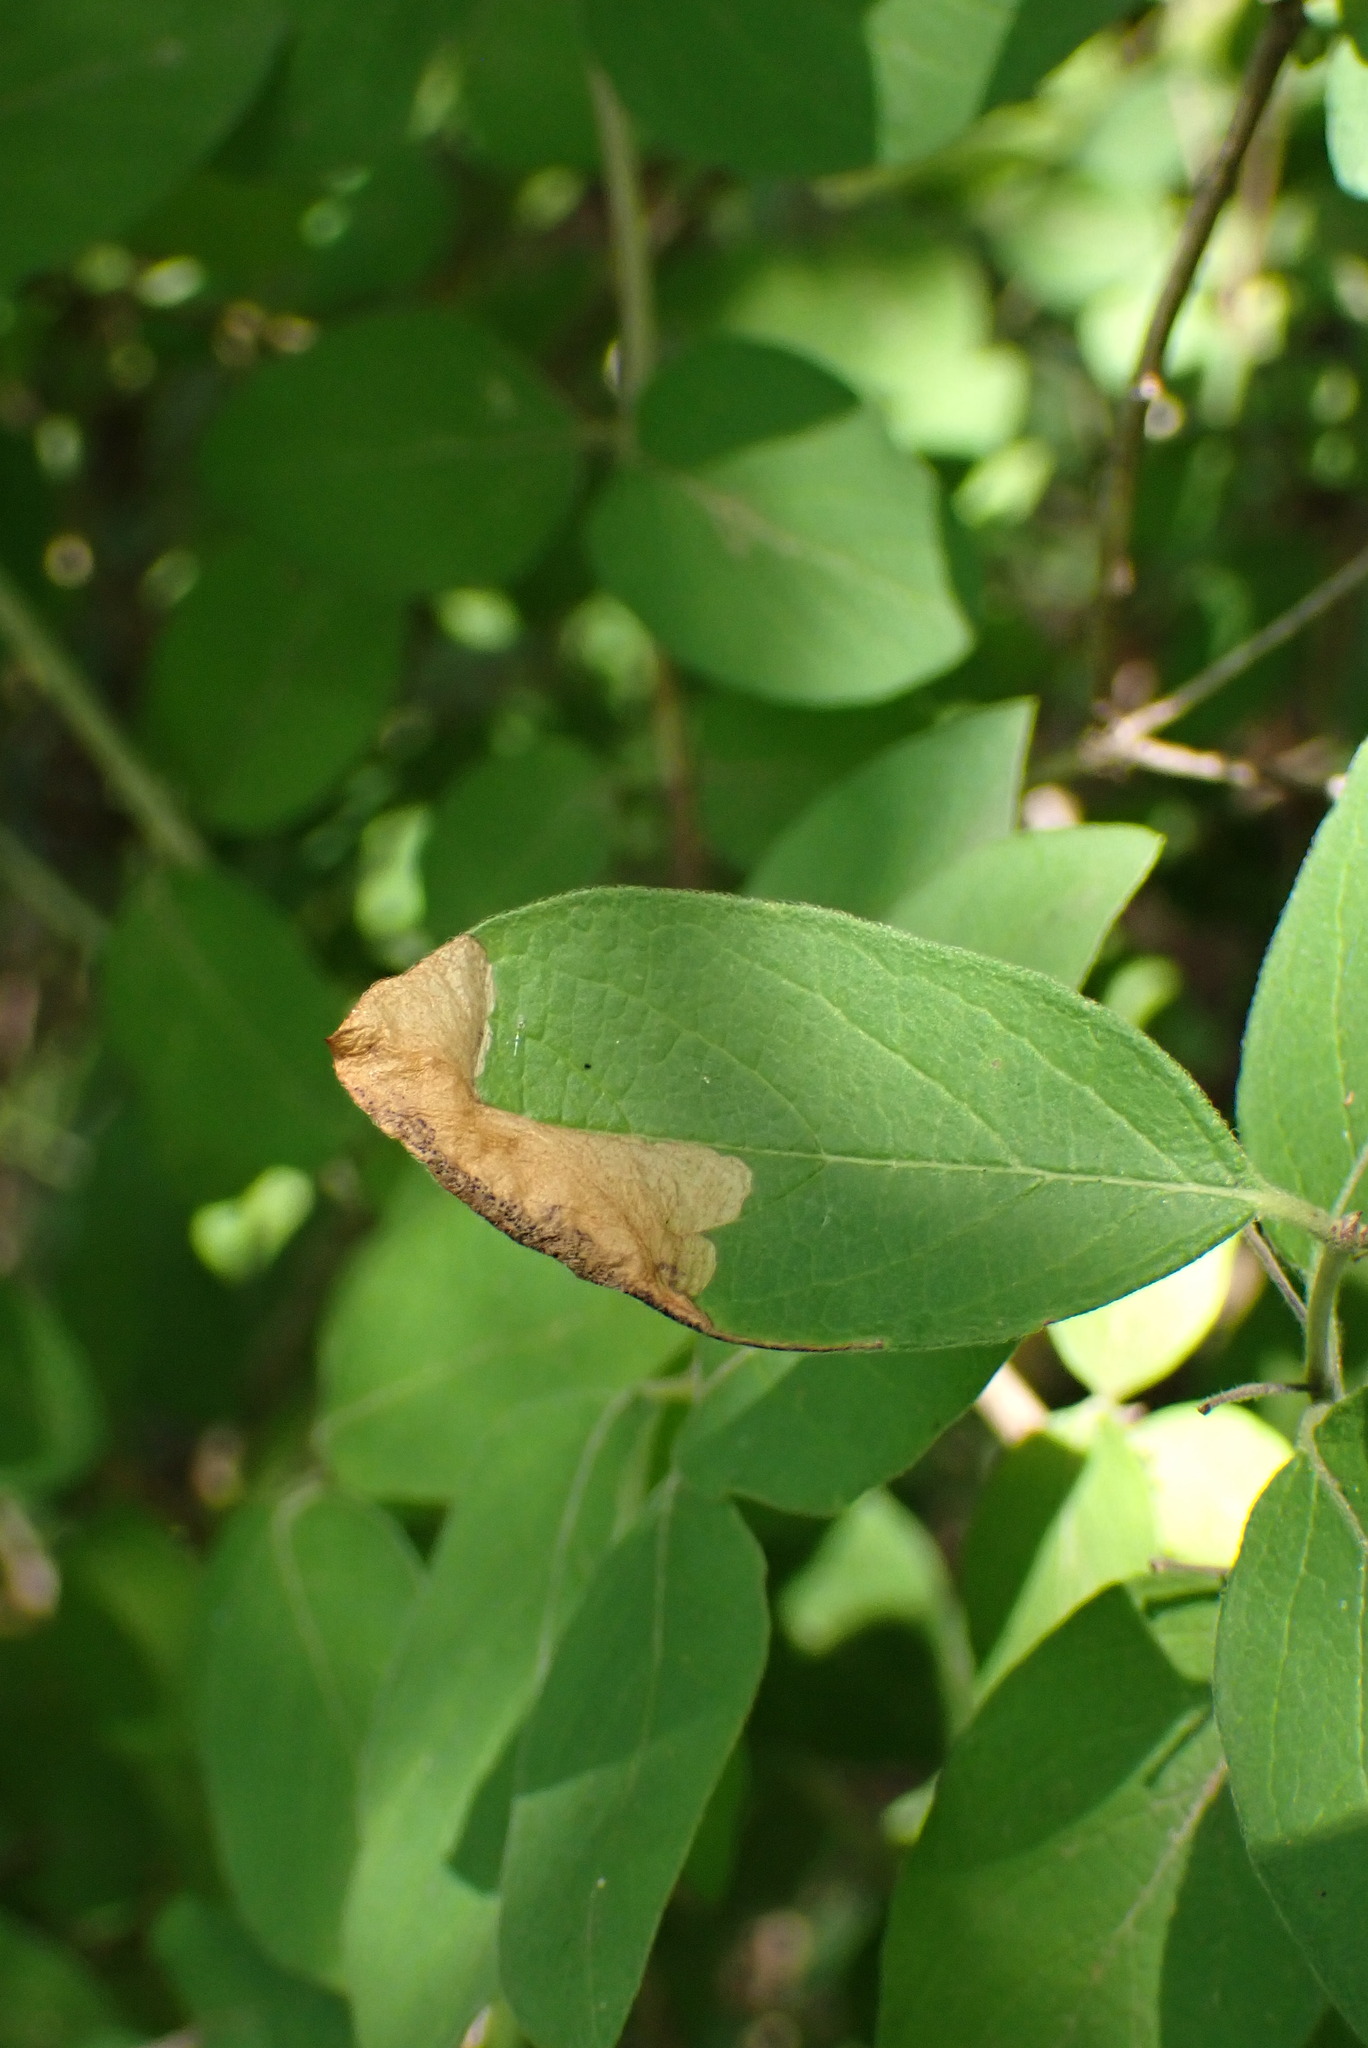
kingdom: Animalia
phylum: Arthropoda
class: Insecta
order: Lepidoptera
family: Elachistidae
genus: Perittia
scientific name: Perittia herrichiella
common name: Moth
